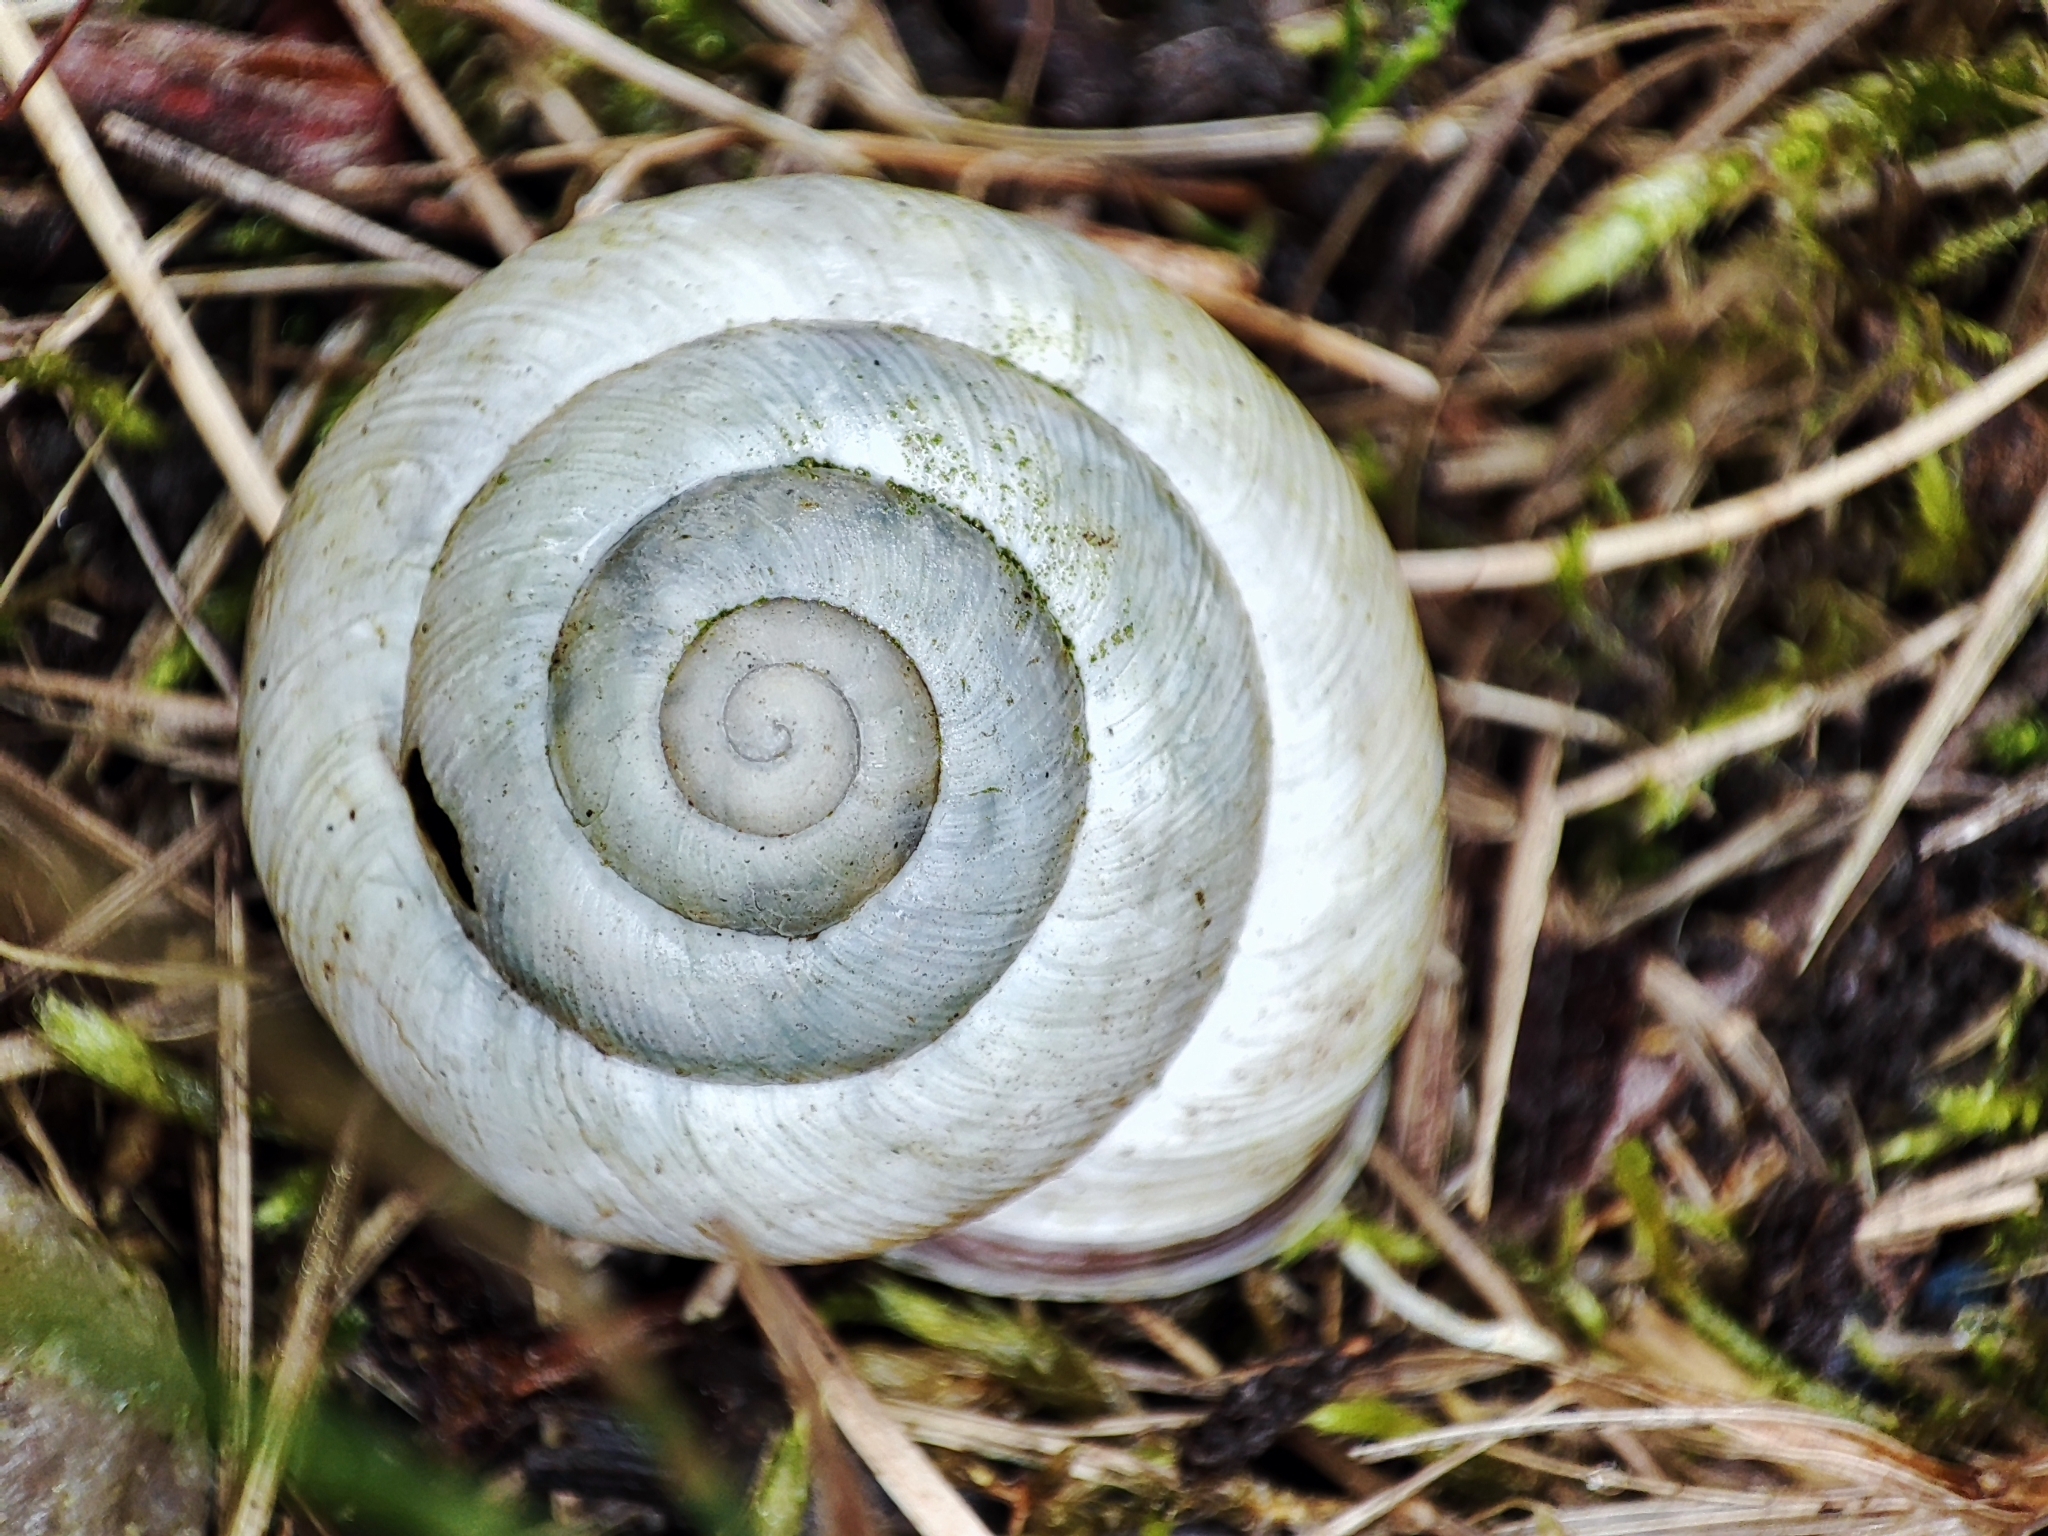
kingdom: Animalia
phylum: Mollusca
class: Gastropoda
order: Stylommatophora
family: Helicidae
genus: Caucasotachea
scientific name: Caucasotachea vindobonensis
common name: European helicid land snail
